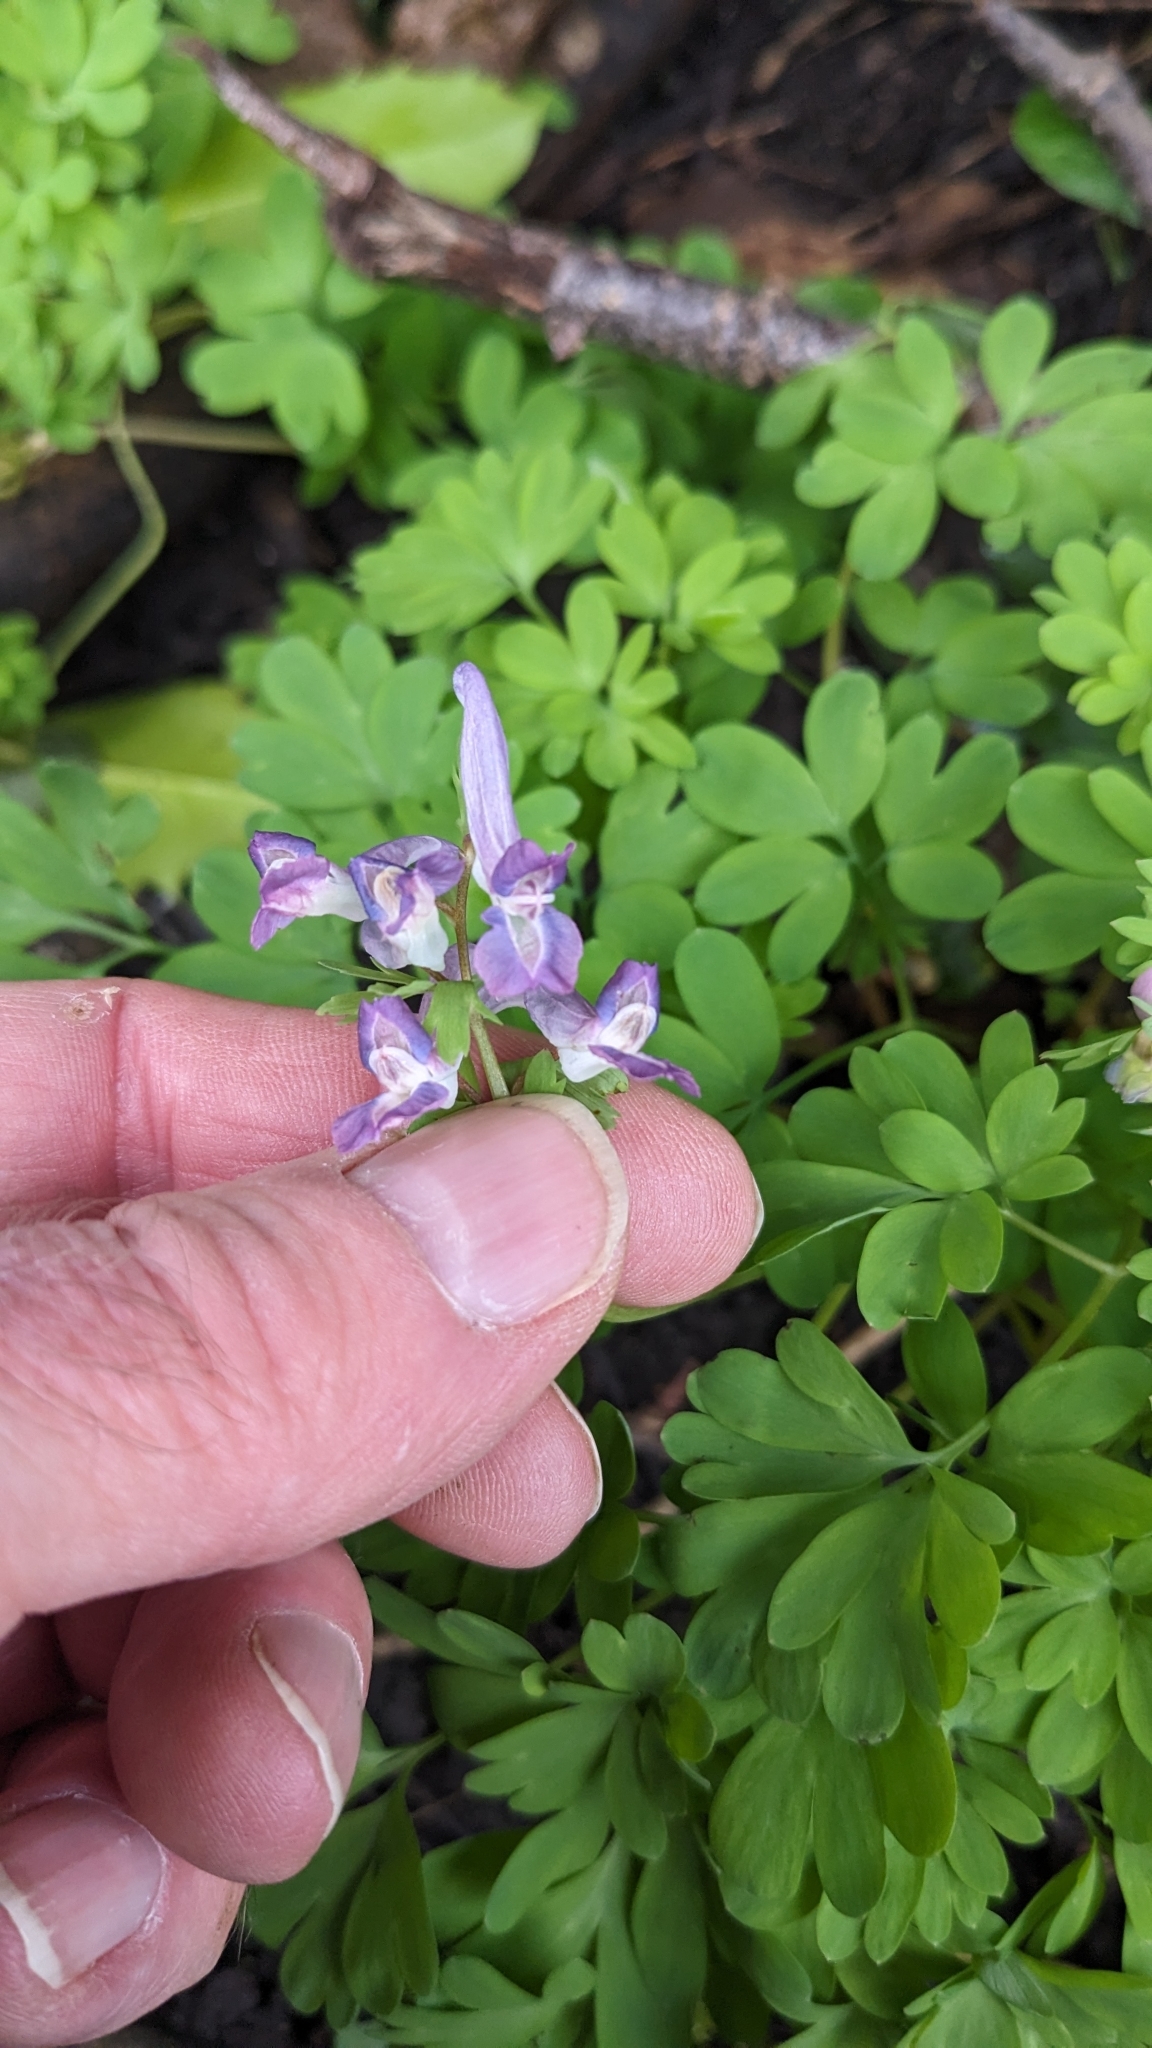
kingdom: Plantae
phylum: Tracheophyta
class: Magnoliopsida
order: Ranunculales
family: Papaveraceae
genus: Corydalis
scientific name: Corydalis solida
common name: Bird-in-a-bush
